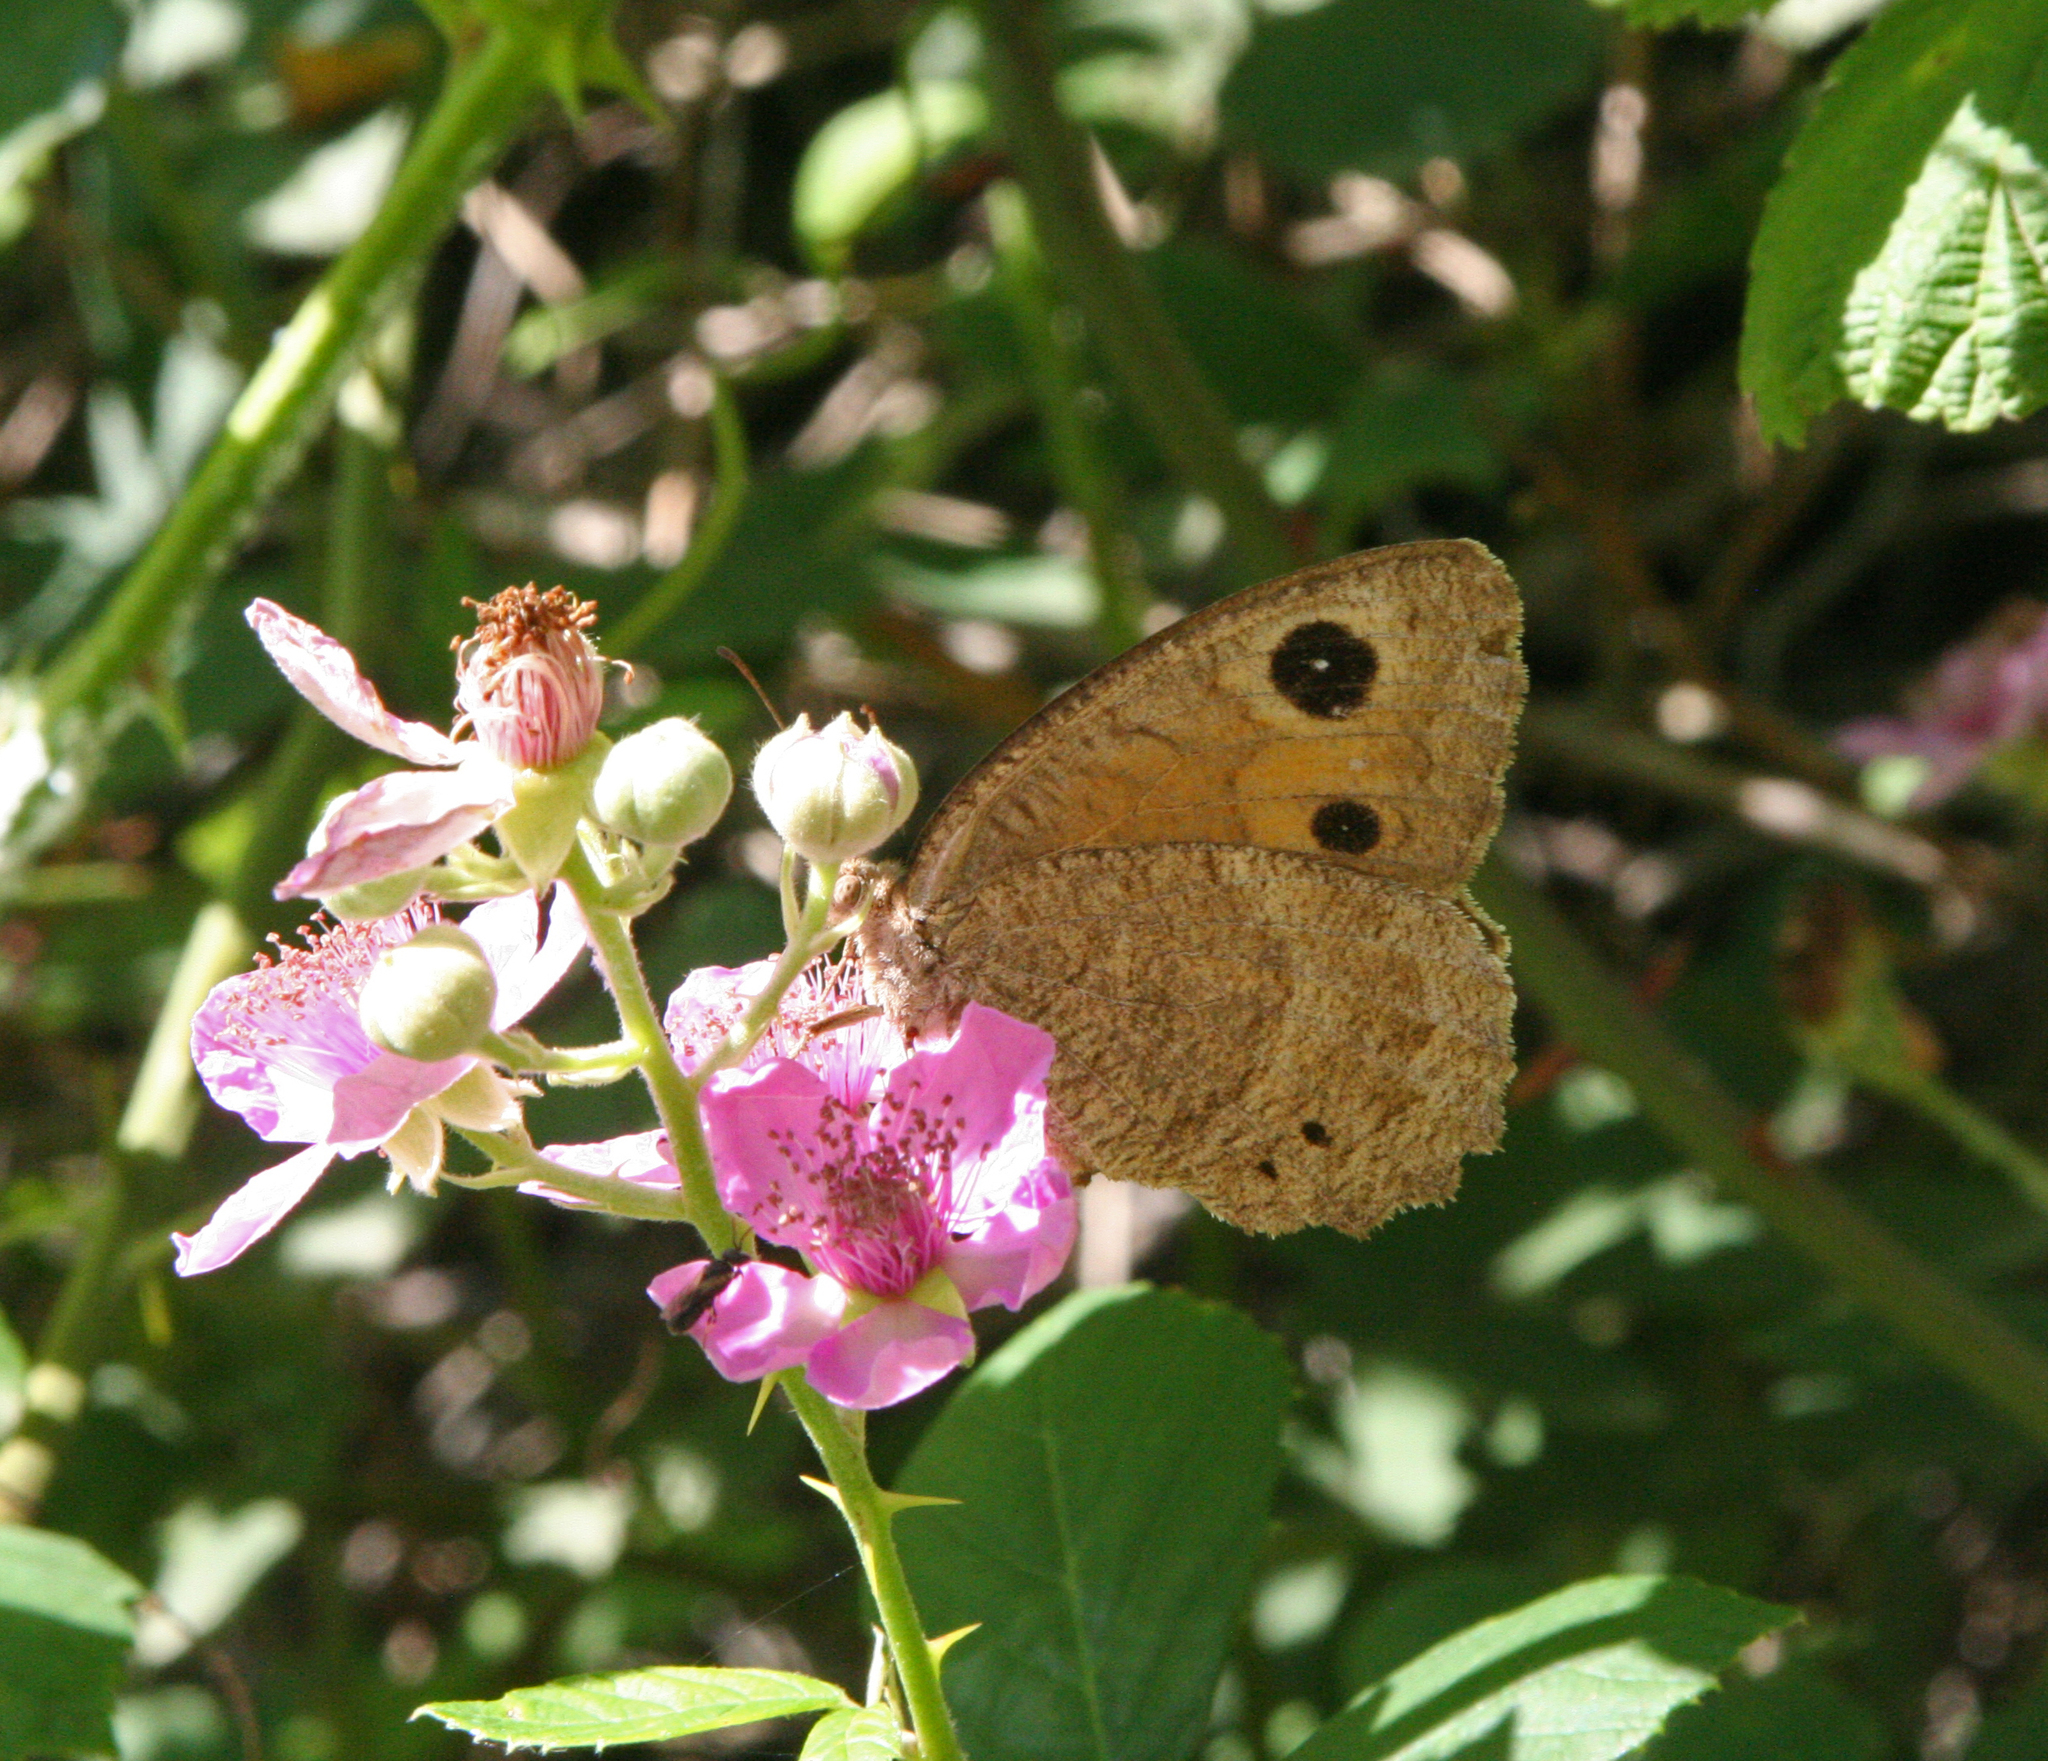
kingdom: Animalia
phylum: Arthropoda
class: Insecta
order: Lepidoptera
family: Nymphalidae
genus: Satyrus
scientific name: Satyrus ferula
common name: Great sooty satyr
